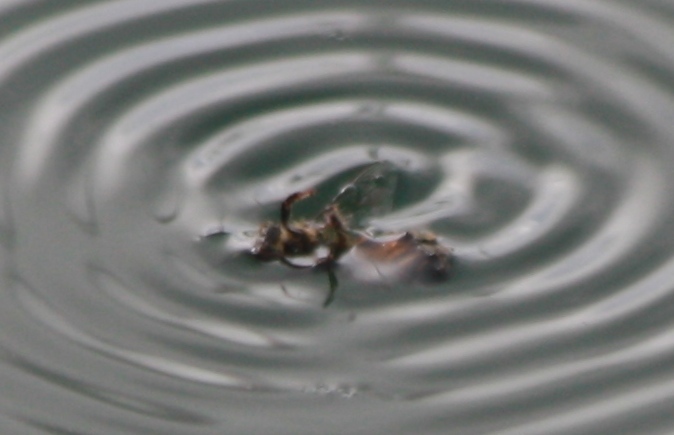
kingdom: Animalia
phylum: Arthropoda
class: Insecta
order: Hymenoptera
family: Apidae
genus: Apis
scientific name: Apis mellifera
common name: Honey bee
